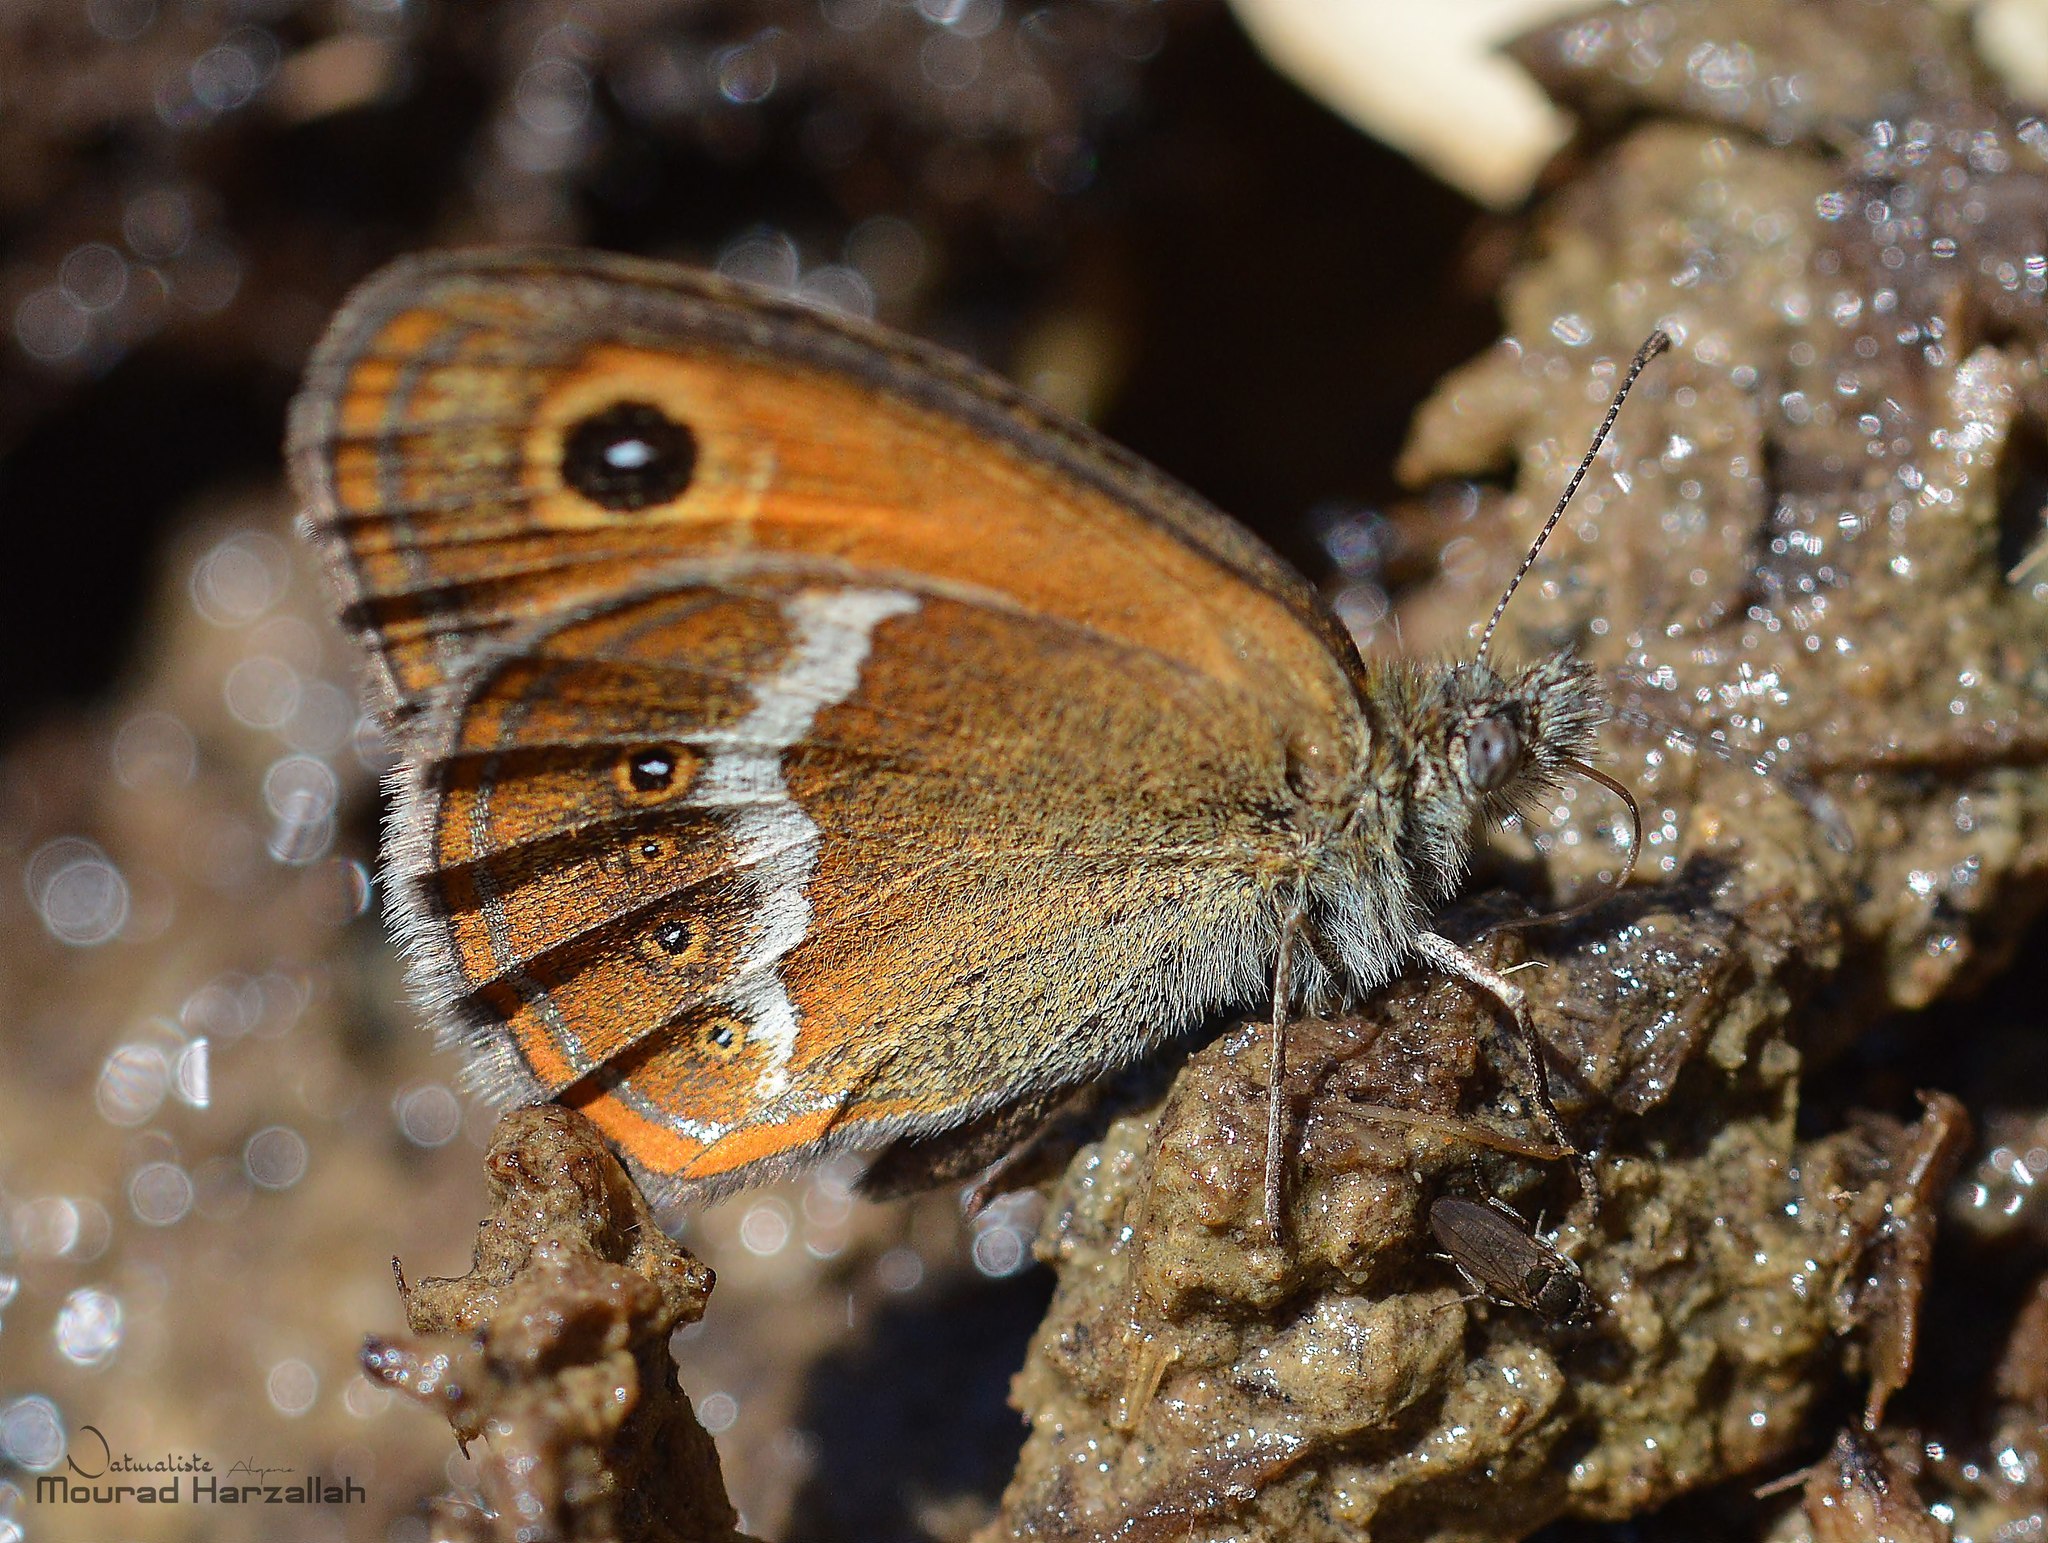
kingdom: Animalia
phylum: Arthropoda
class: Insecta
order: Lepidoptera
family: Nymphalidae
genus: Coenonympha
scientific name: Coenonympha arcanioides
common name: Moroccan pearly heath
